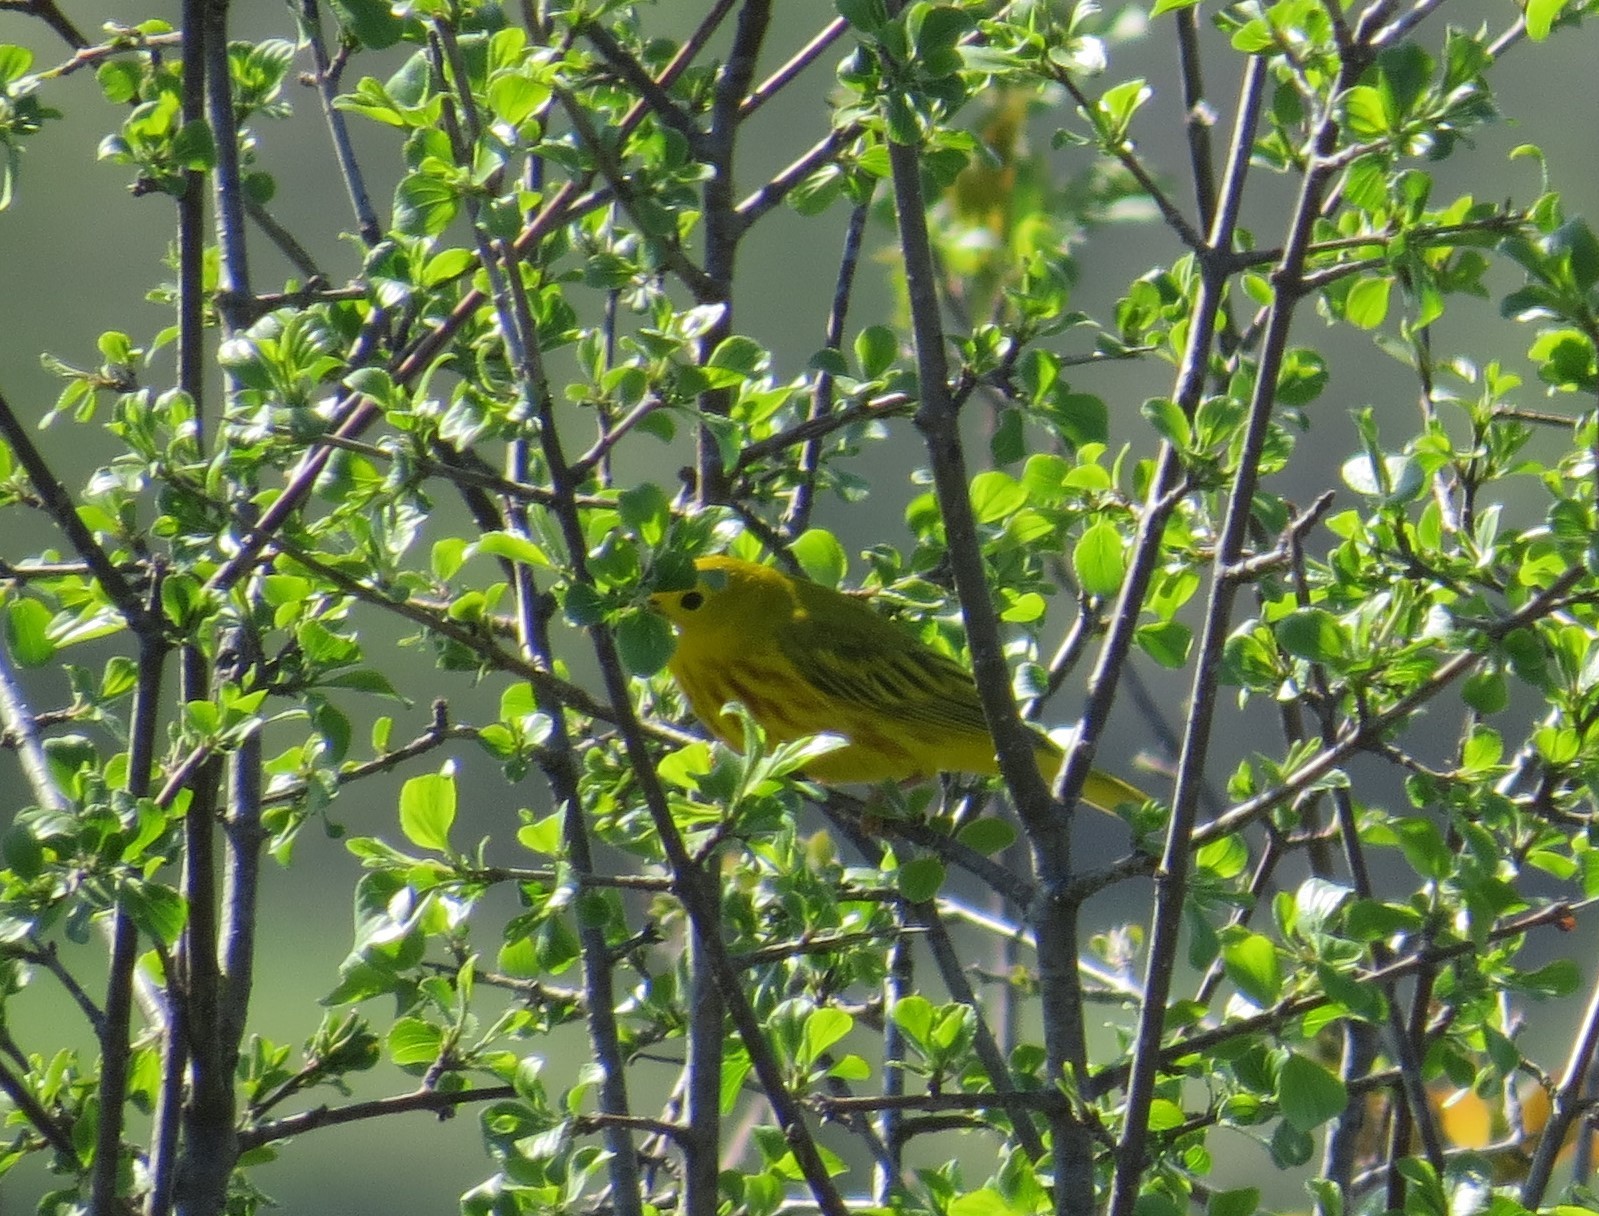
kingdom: Animalia
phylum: Chordata
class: Aves
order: Passeriformes
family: Parulidae
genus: Setophaga
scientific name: Setophaga petechia
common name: Yellow warbler
